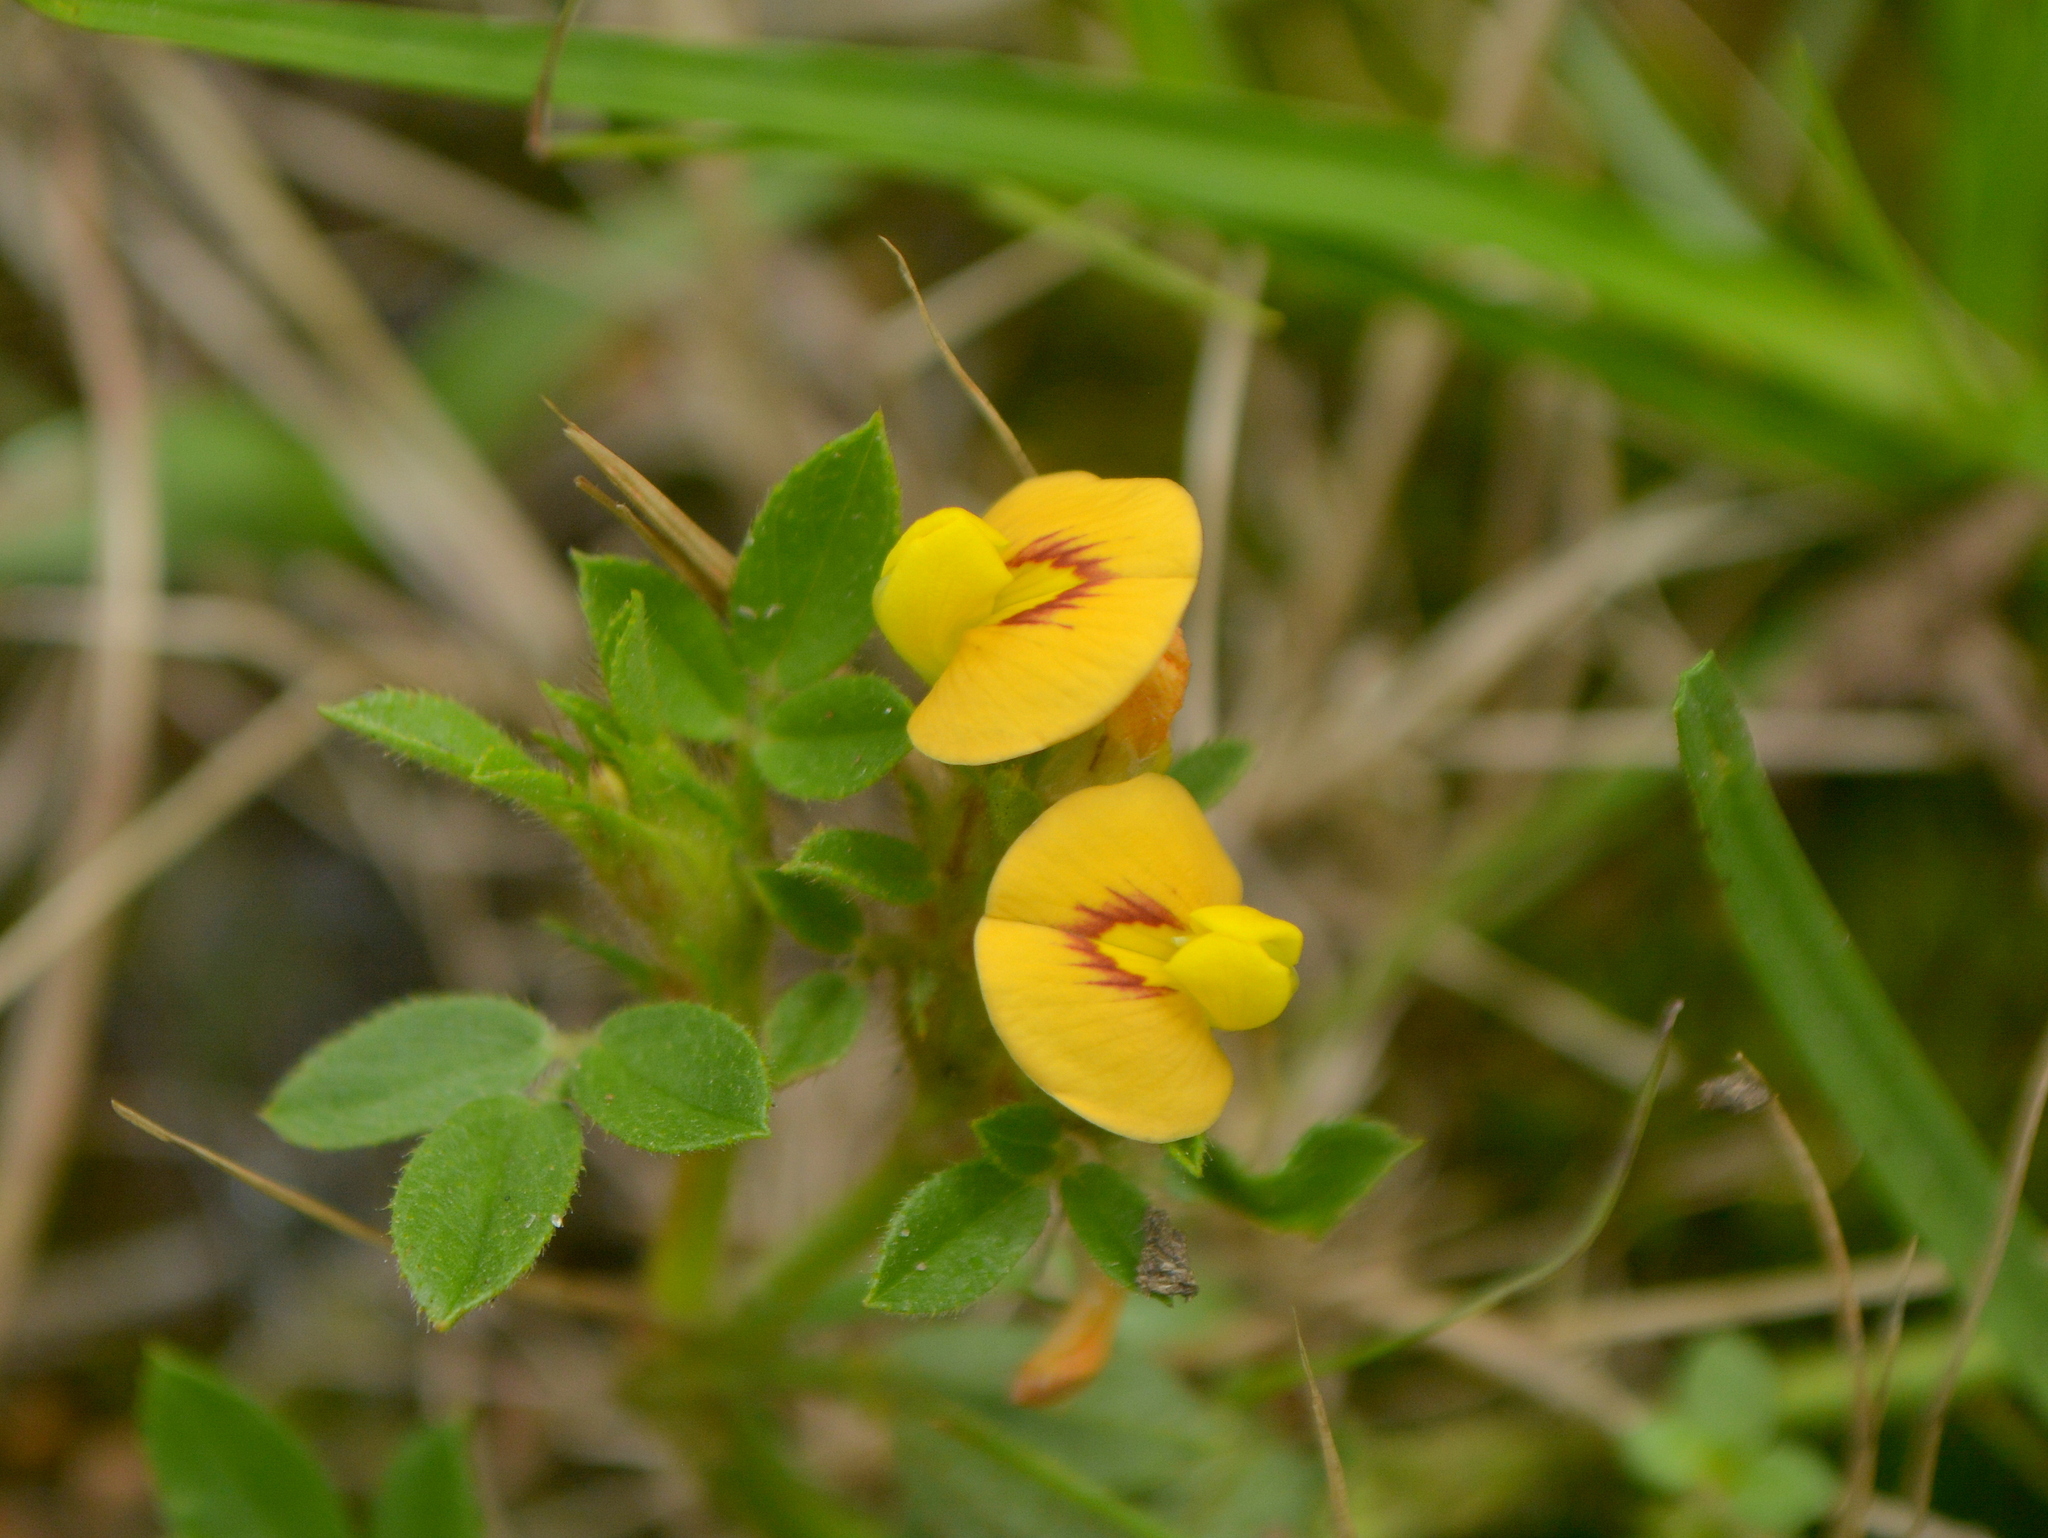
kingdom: Plantae
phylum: Tracheophyta
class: Magnoliopsida
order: Fabales
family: Fabaceae
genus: Stylosanthes
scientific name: Stylosanthes leiocarpa
